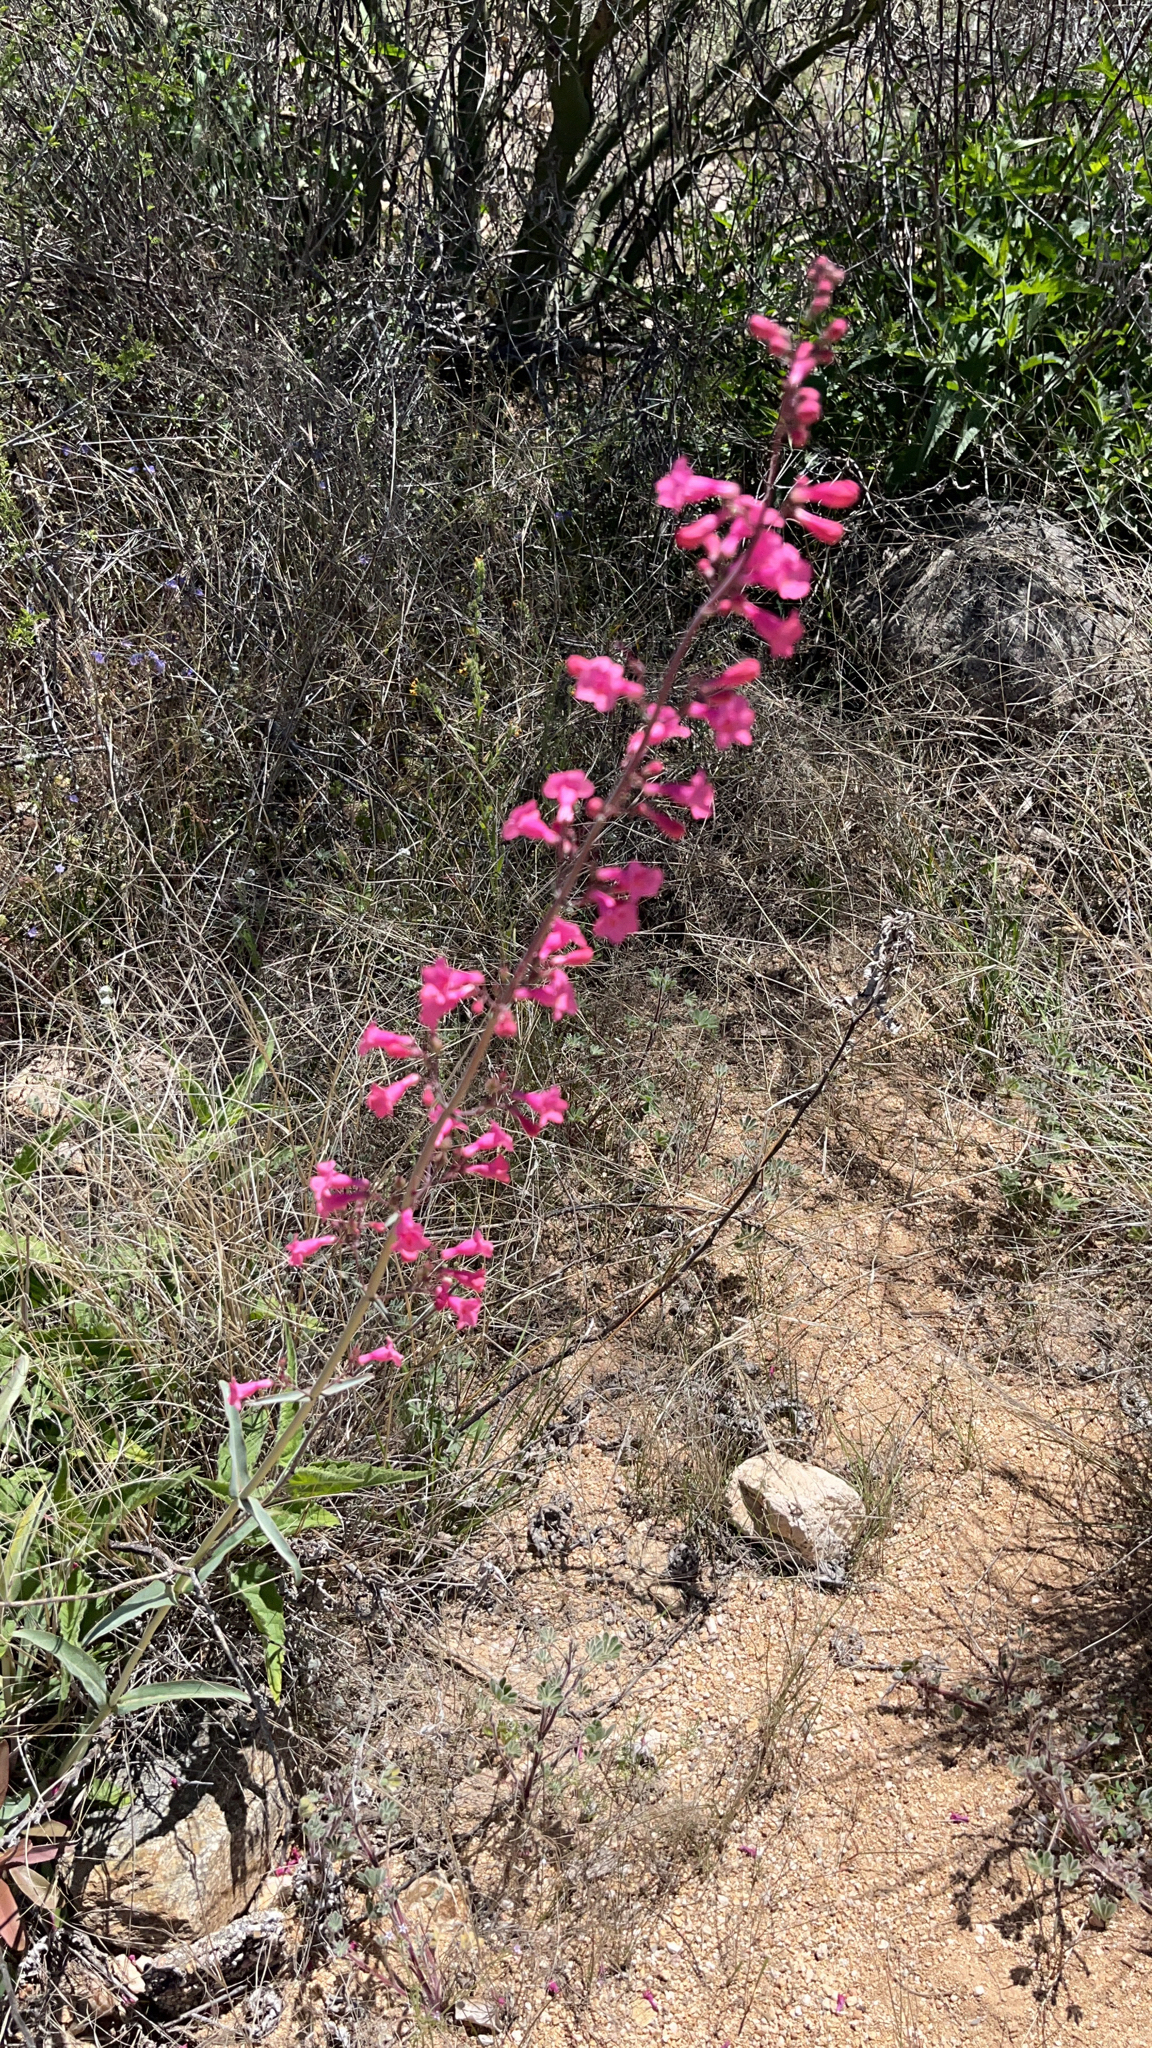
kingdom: Plantae
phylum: Tracheophyta
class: Magnoliopsida
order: Lamiales
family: Plantaginaceae
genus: Penstemon
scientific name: Penstemon parryi
